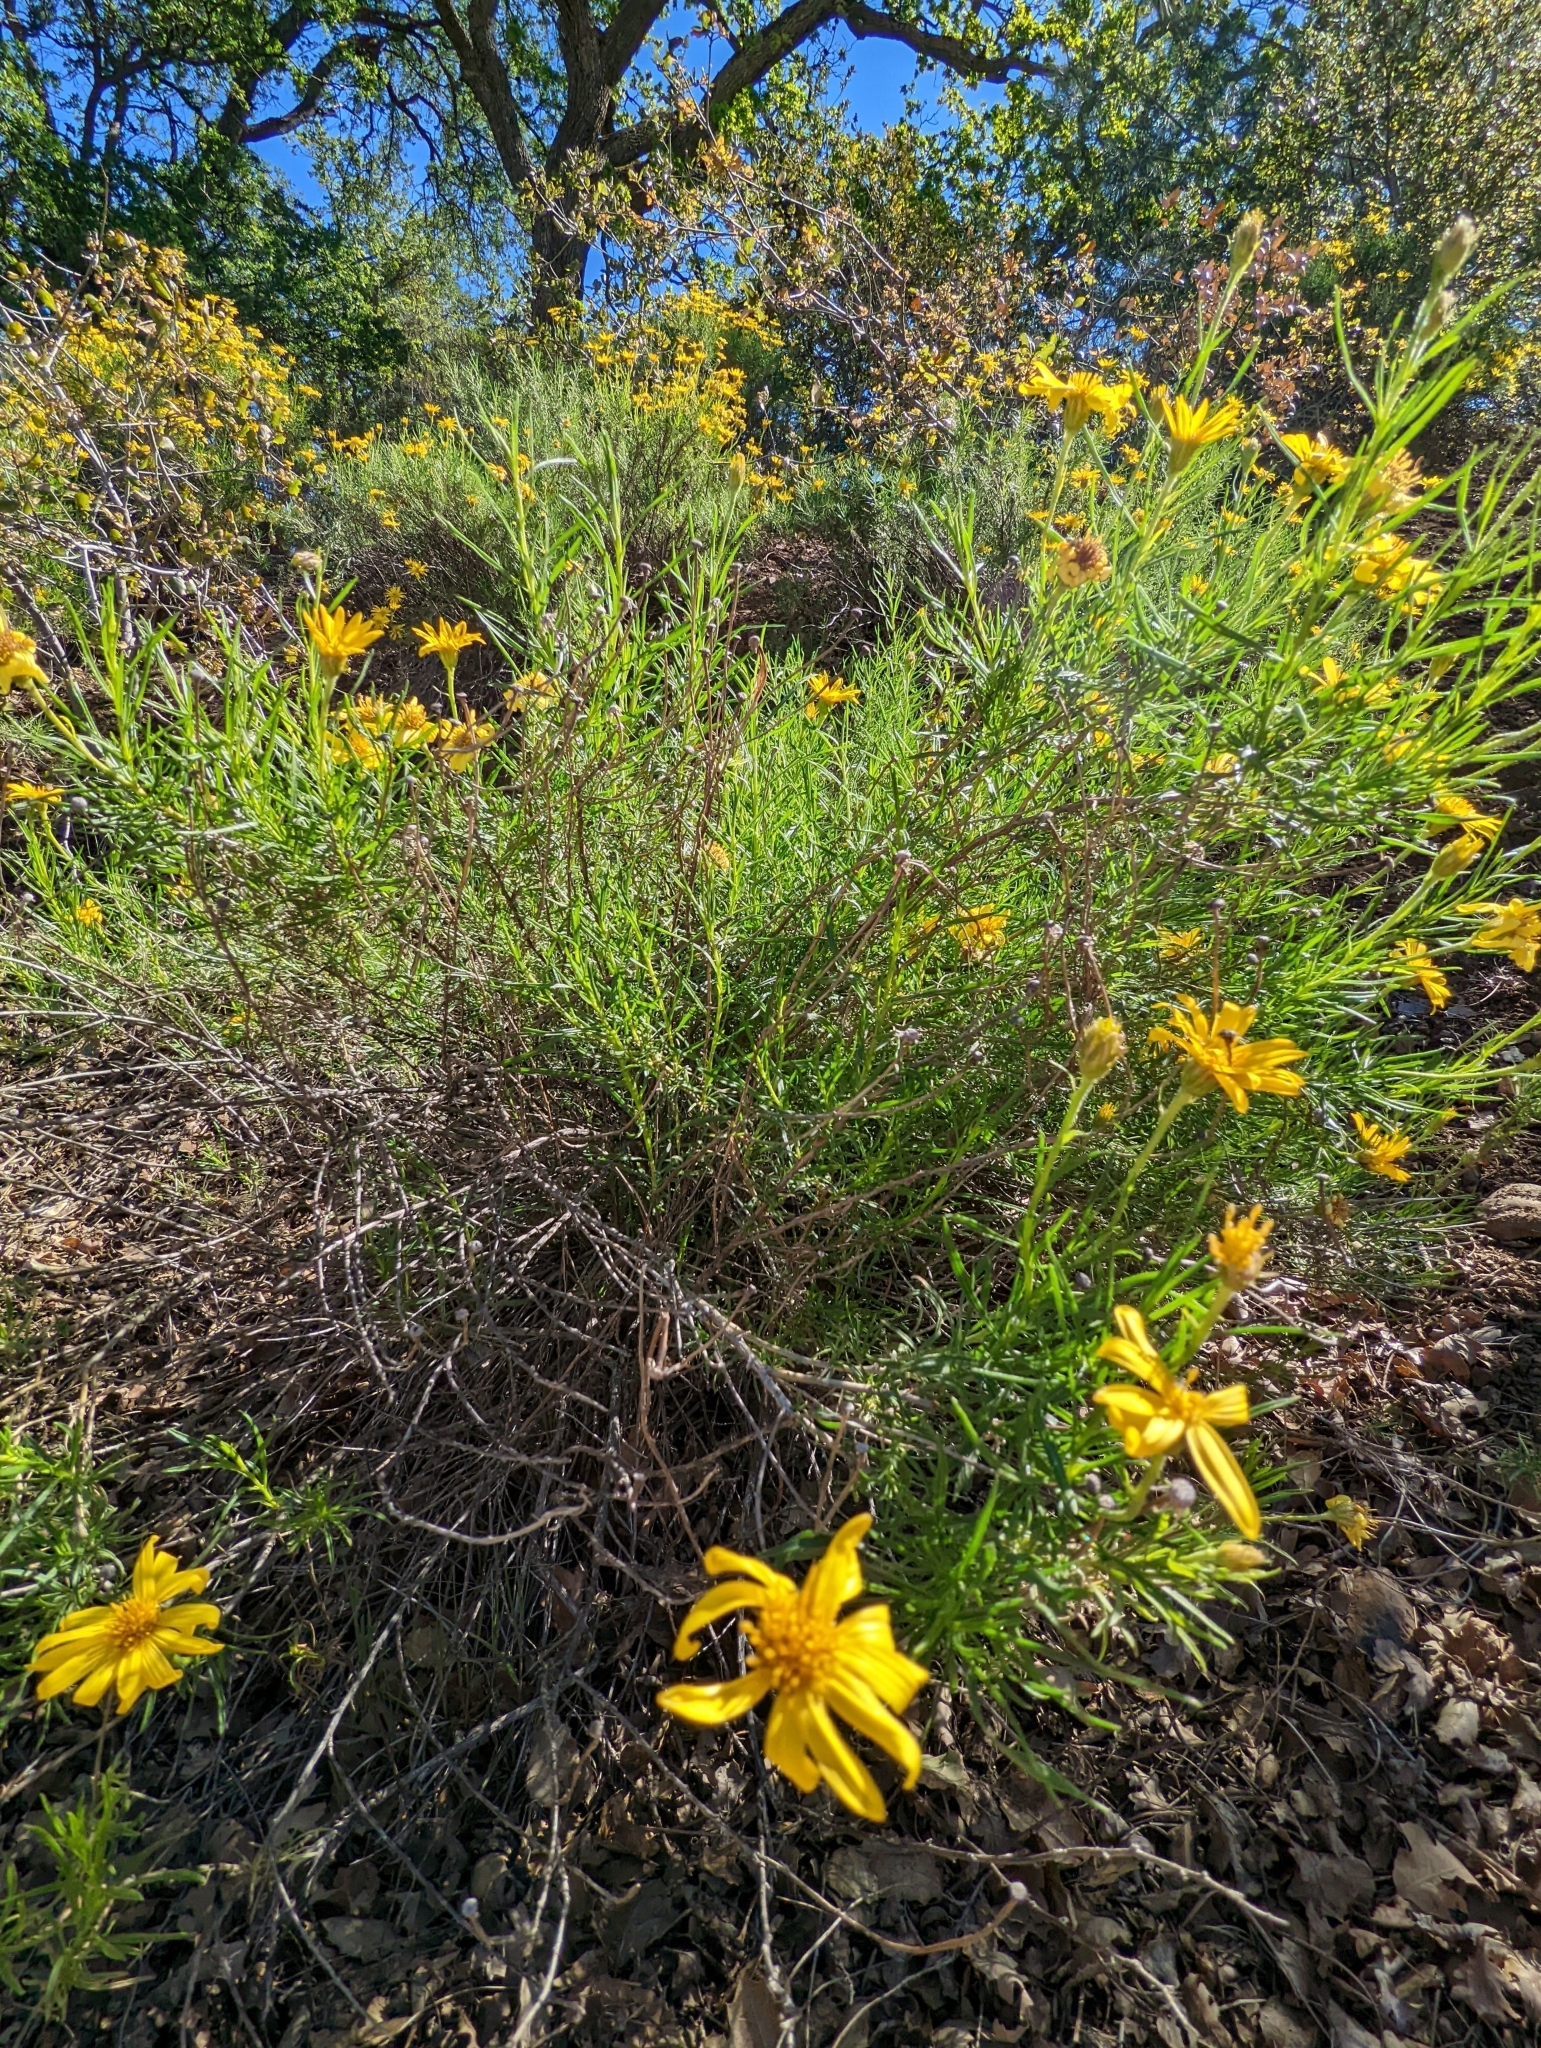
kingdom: Plantae
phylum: Tracheophyta
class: Magnoliopsida
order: Asterales
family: Asteraceae
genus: Ericameria
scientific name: Ericameria linearifolia
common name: Interior goldenbush
